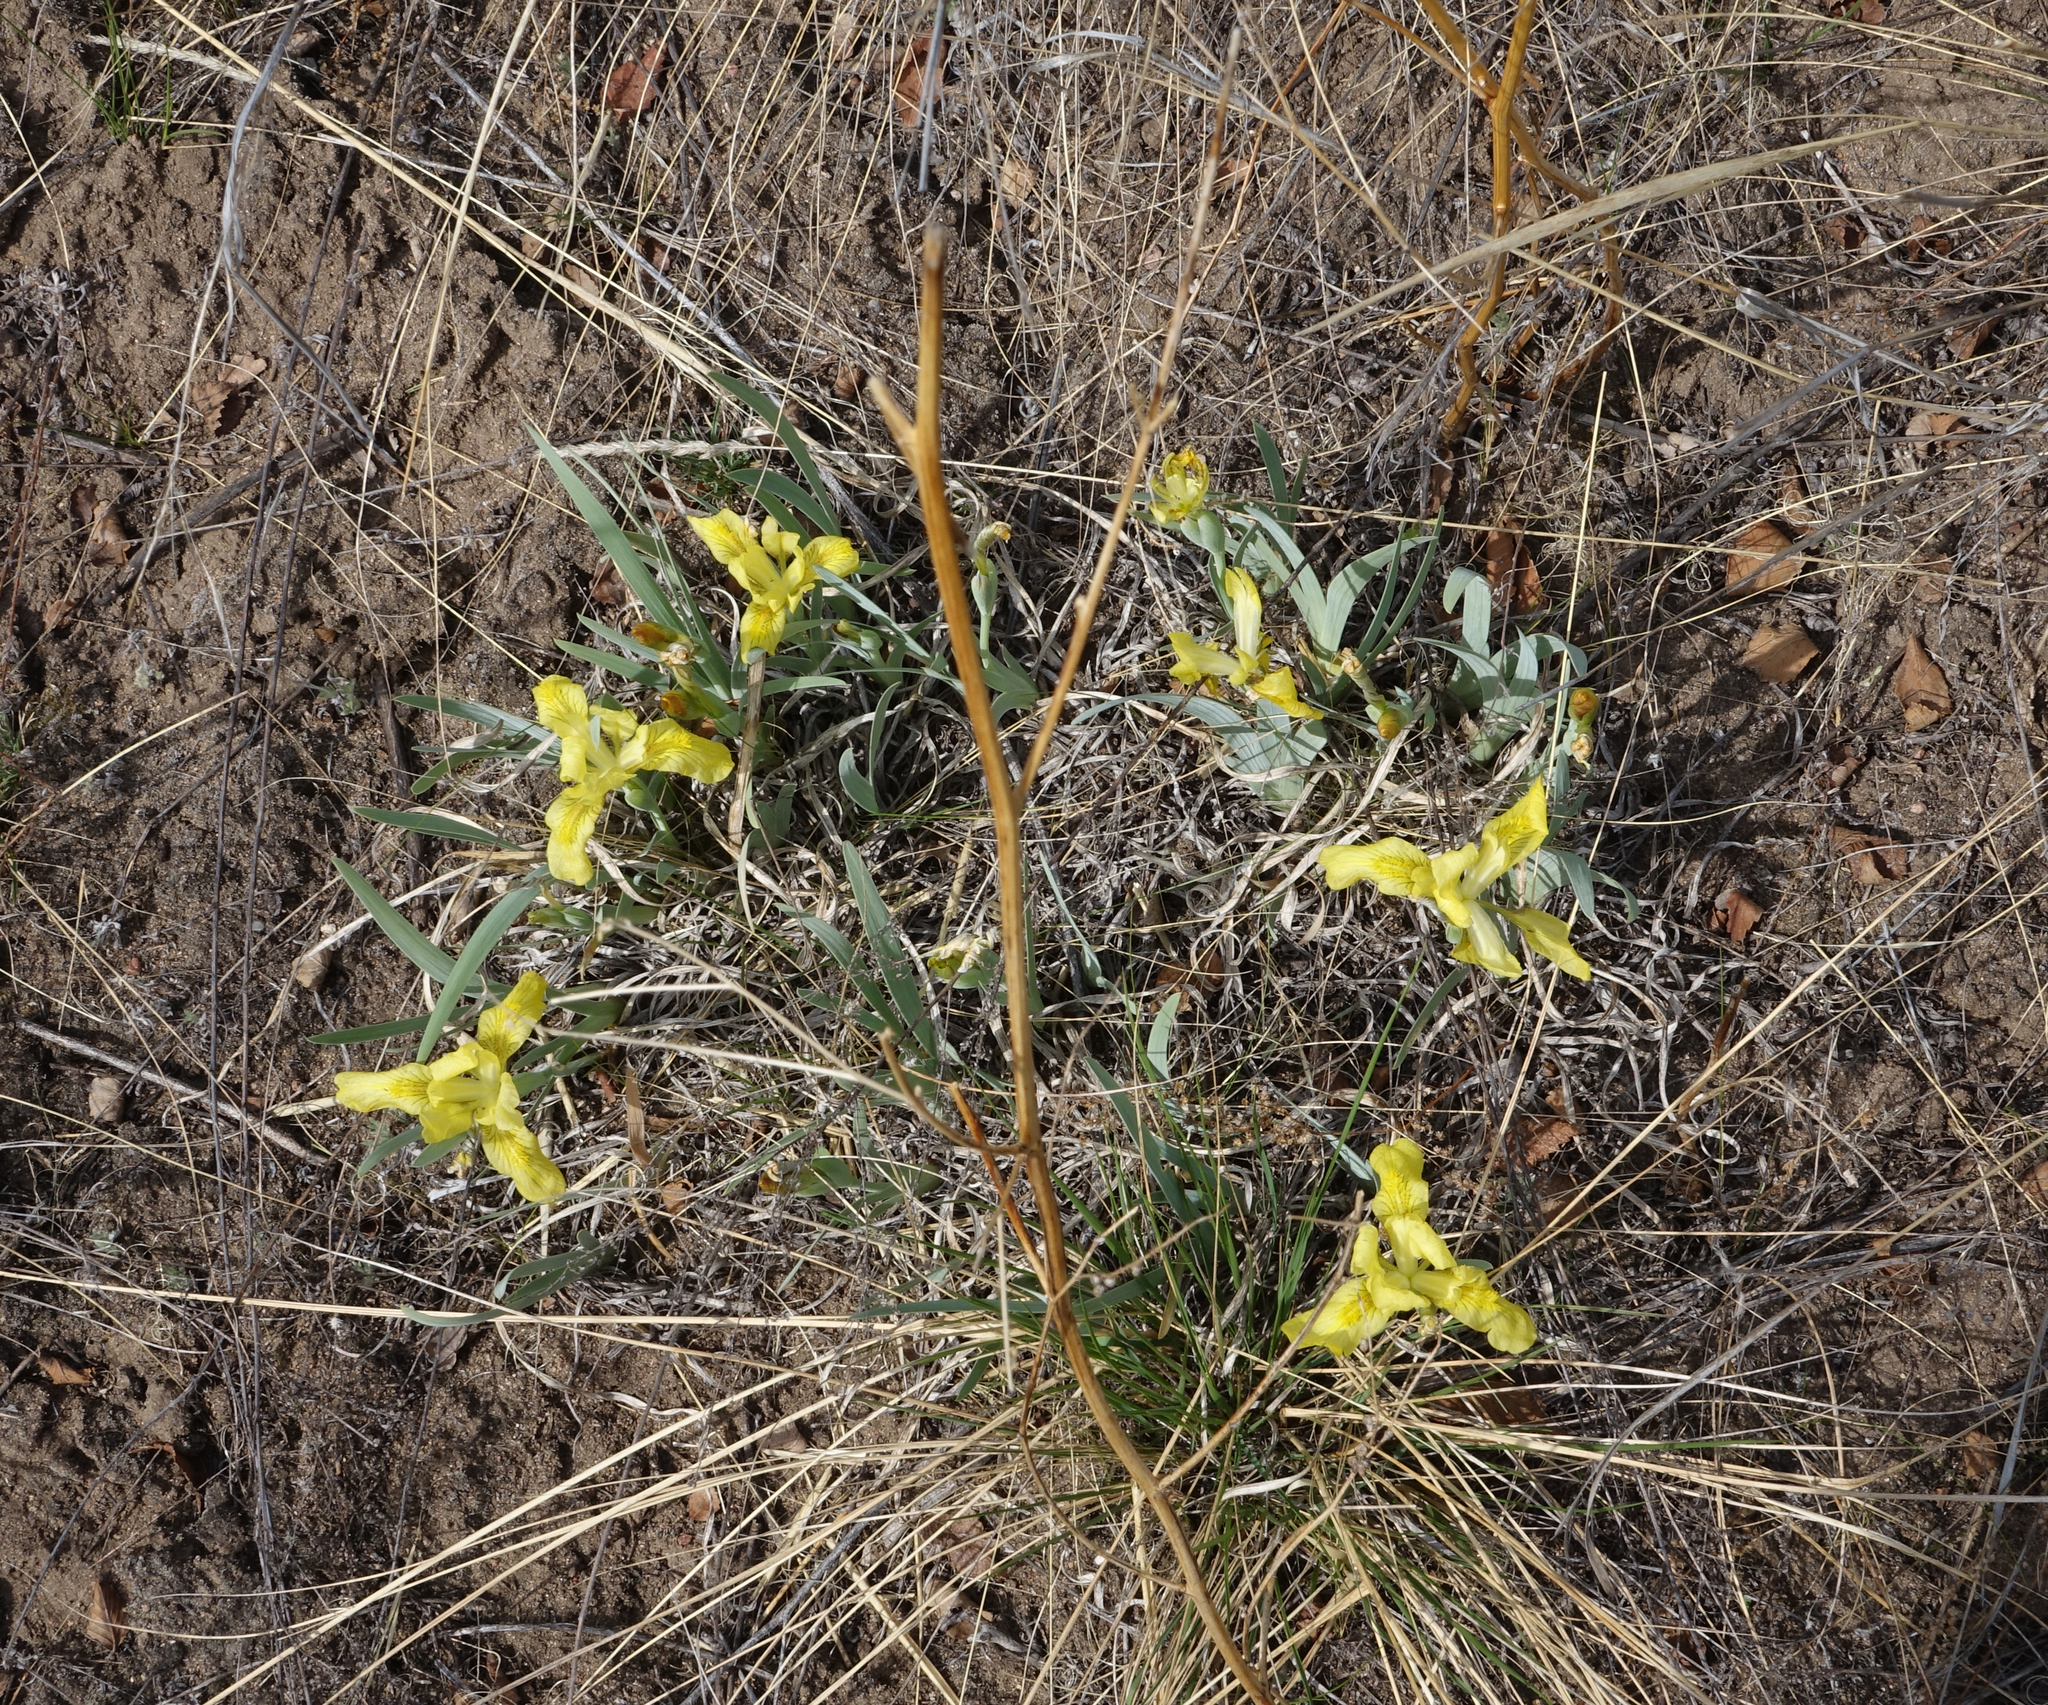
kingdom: Plantae
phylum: Tracheophyta
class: Liliopsida
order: Asparagales
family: Iridaceae
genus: Iris
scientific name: Iris humilis
